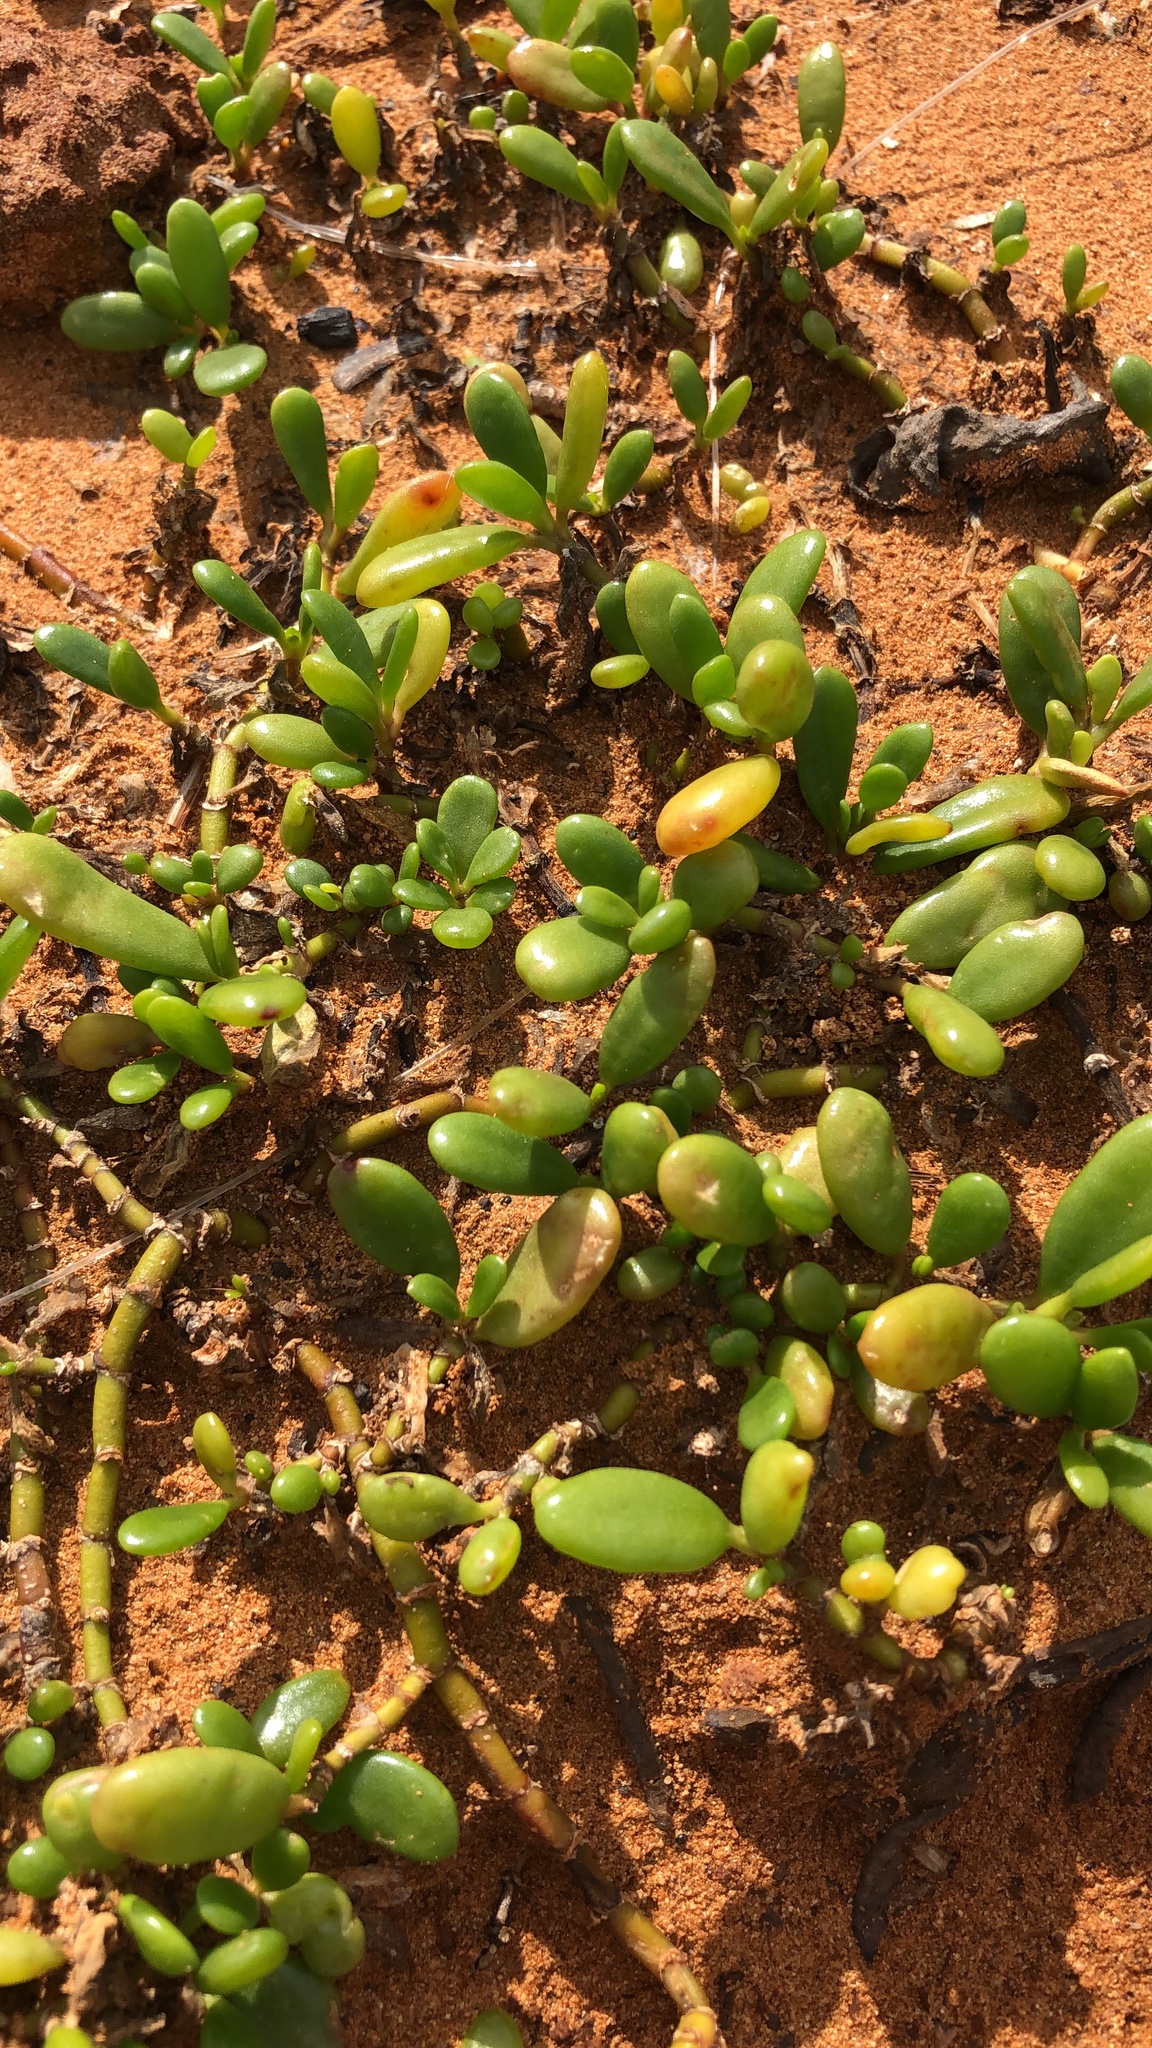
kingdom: Plantae
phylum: Tracheophyta
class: Magnoliopsida
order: Caryophyllales
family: Aizoaceae
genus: Sesuvium
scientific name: Sesuvium portulacastrum
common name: Sea-purslane
